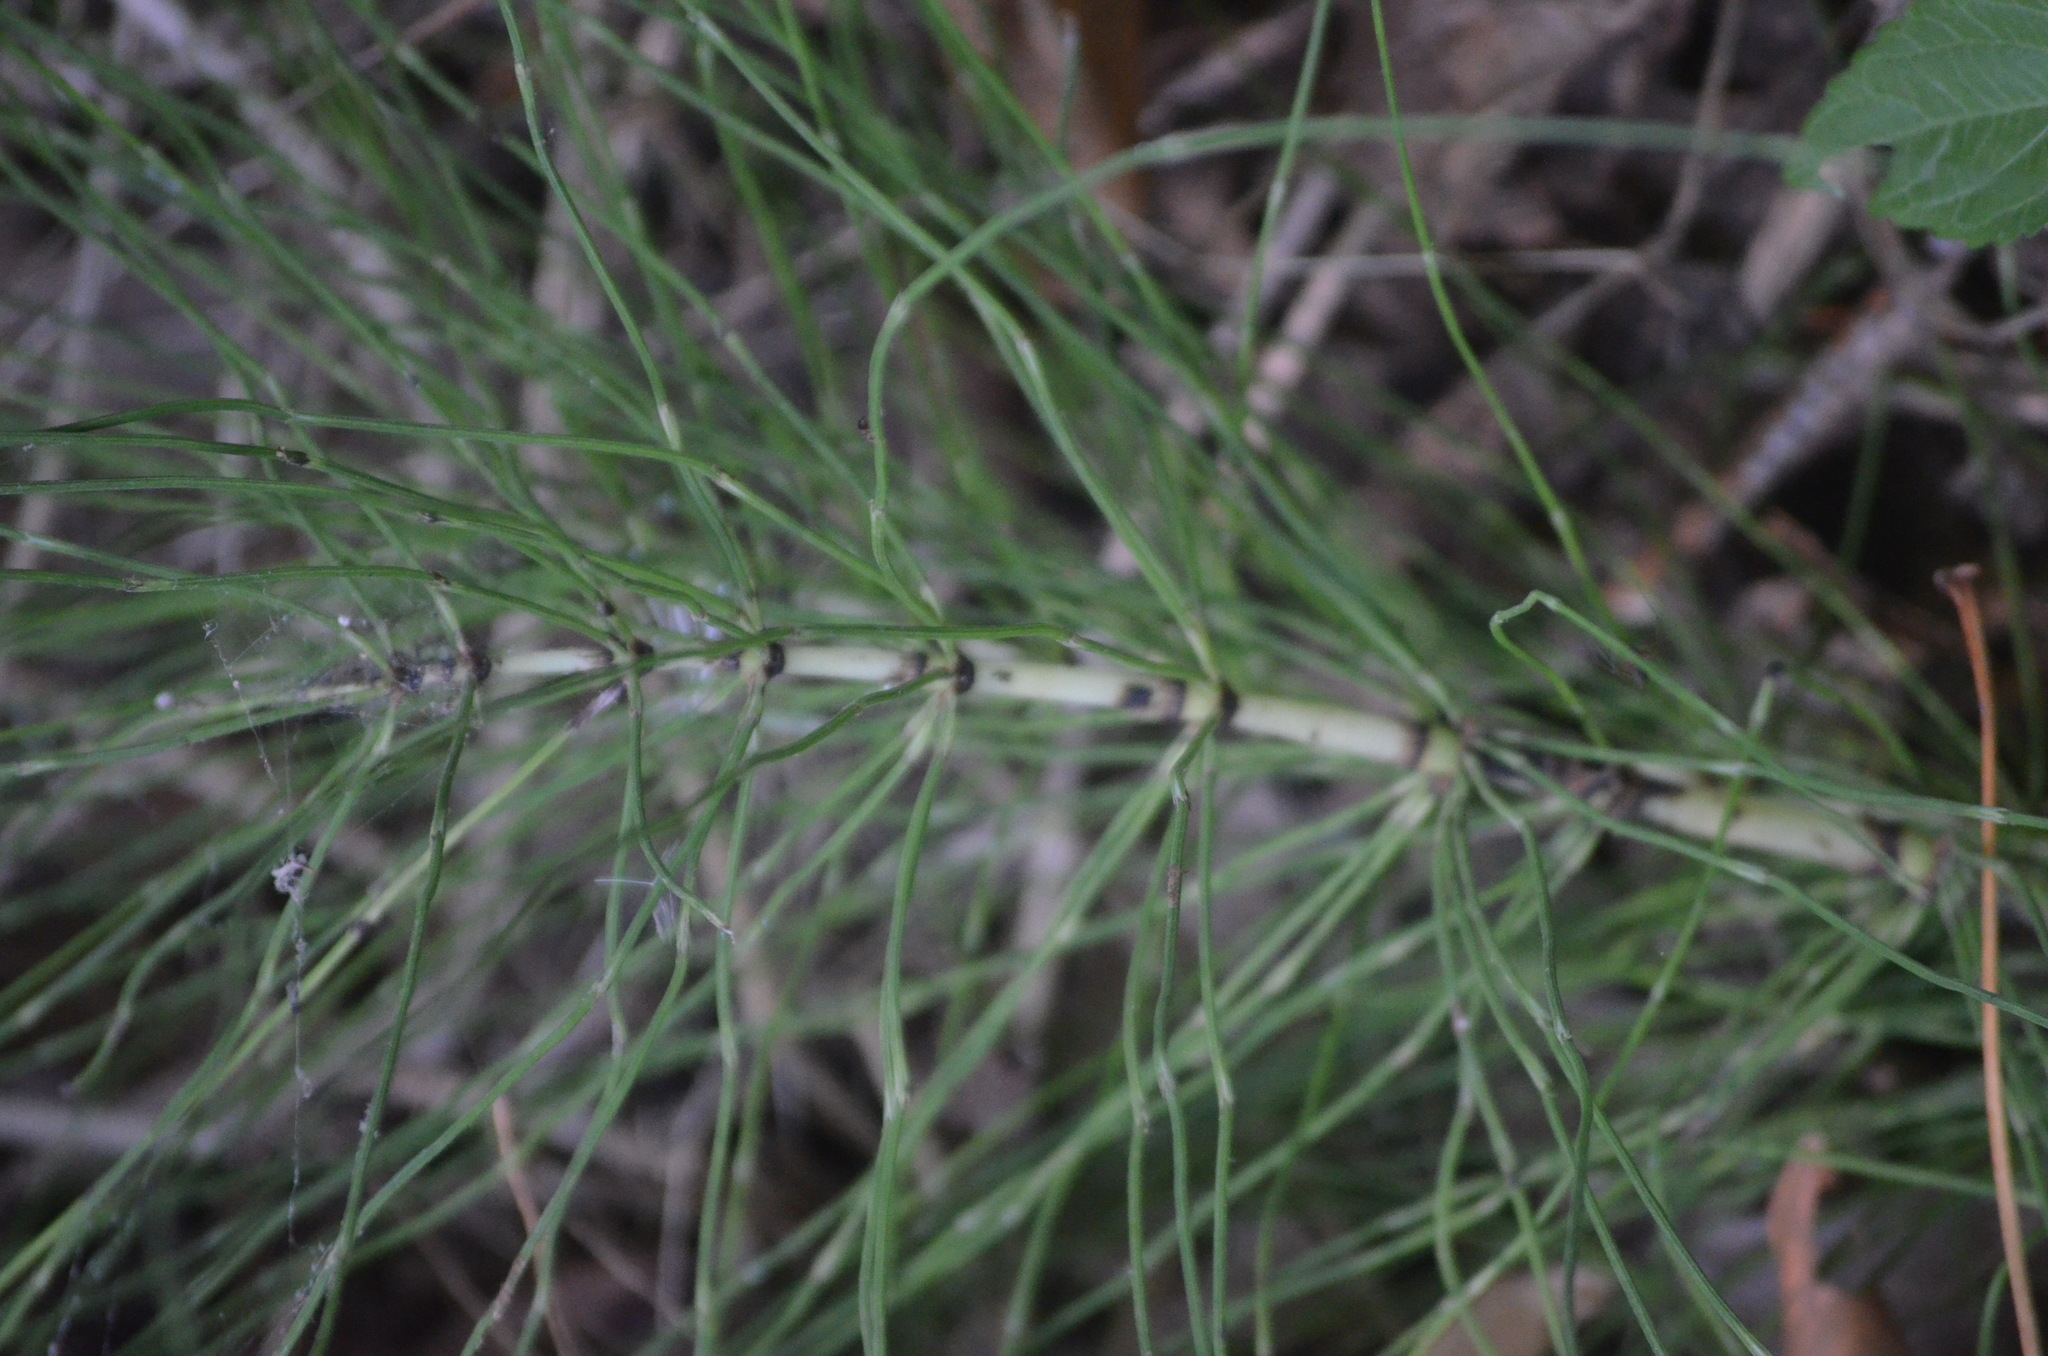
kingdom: Plantae
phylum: Tracheophyta
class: Polypodiopsida
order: Equisetales
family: Equisetaceae
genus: Equisetum
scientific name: Equisetum telmateia
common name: Great horsetail
